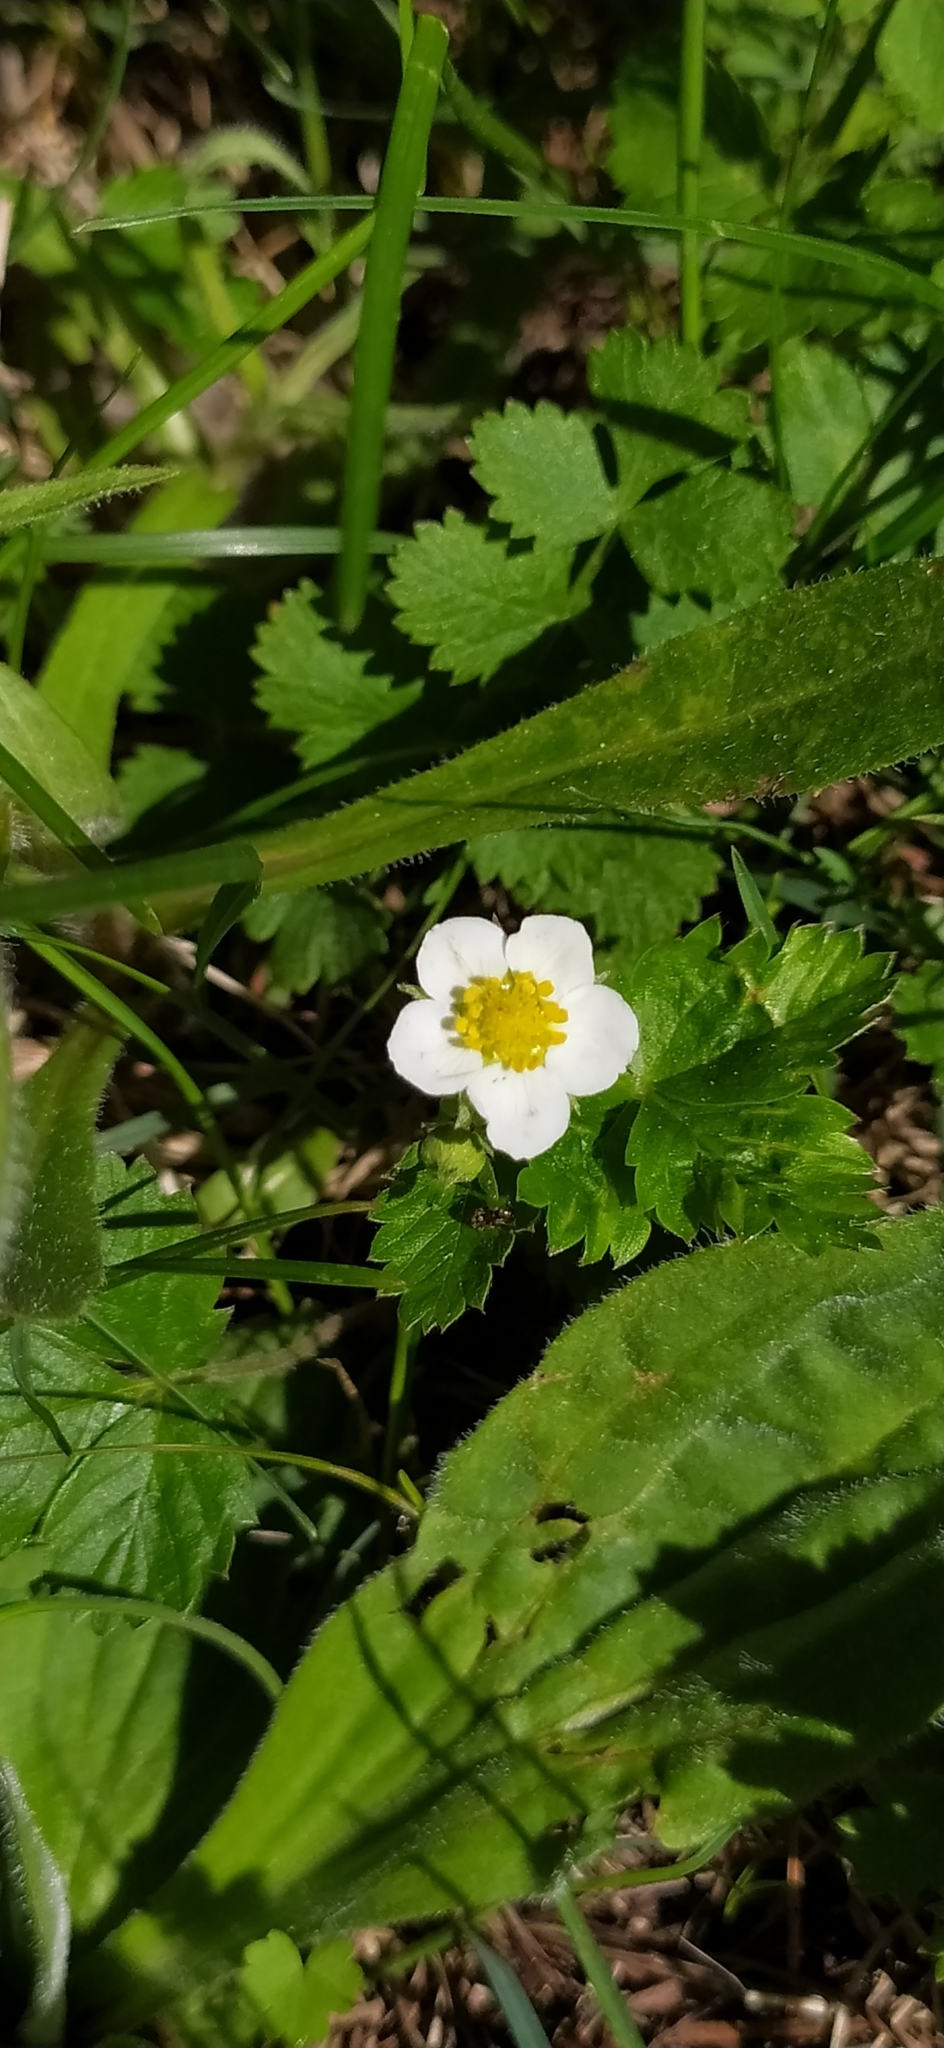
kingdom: Plantae
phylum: Tracheophyta
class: Magnoliopsida
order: Rosales
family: Rosaceae
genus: Fragaria
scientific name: Fragaria vesca
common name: Wild strawberry
